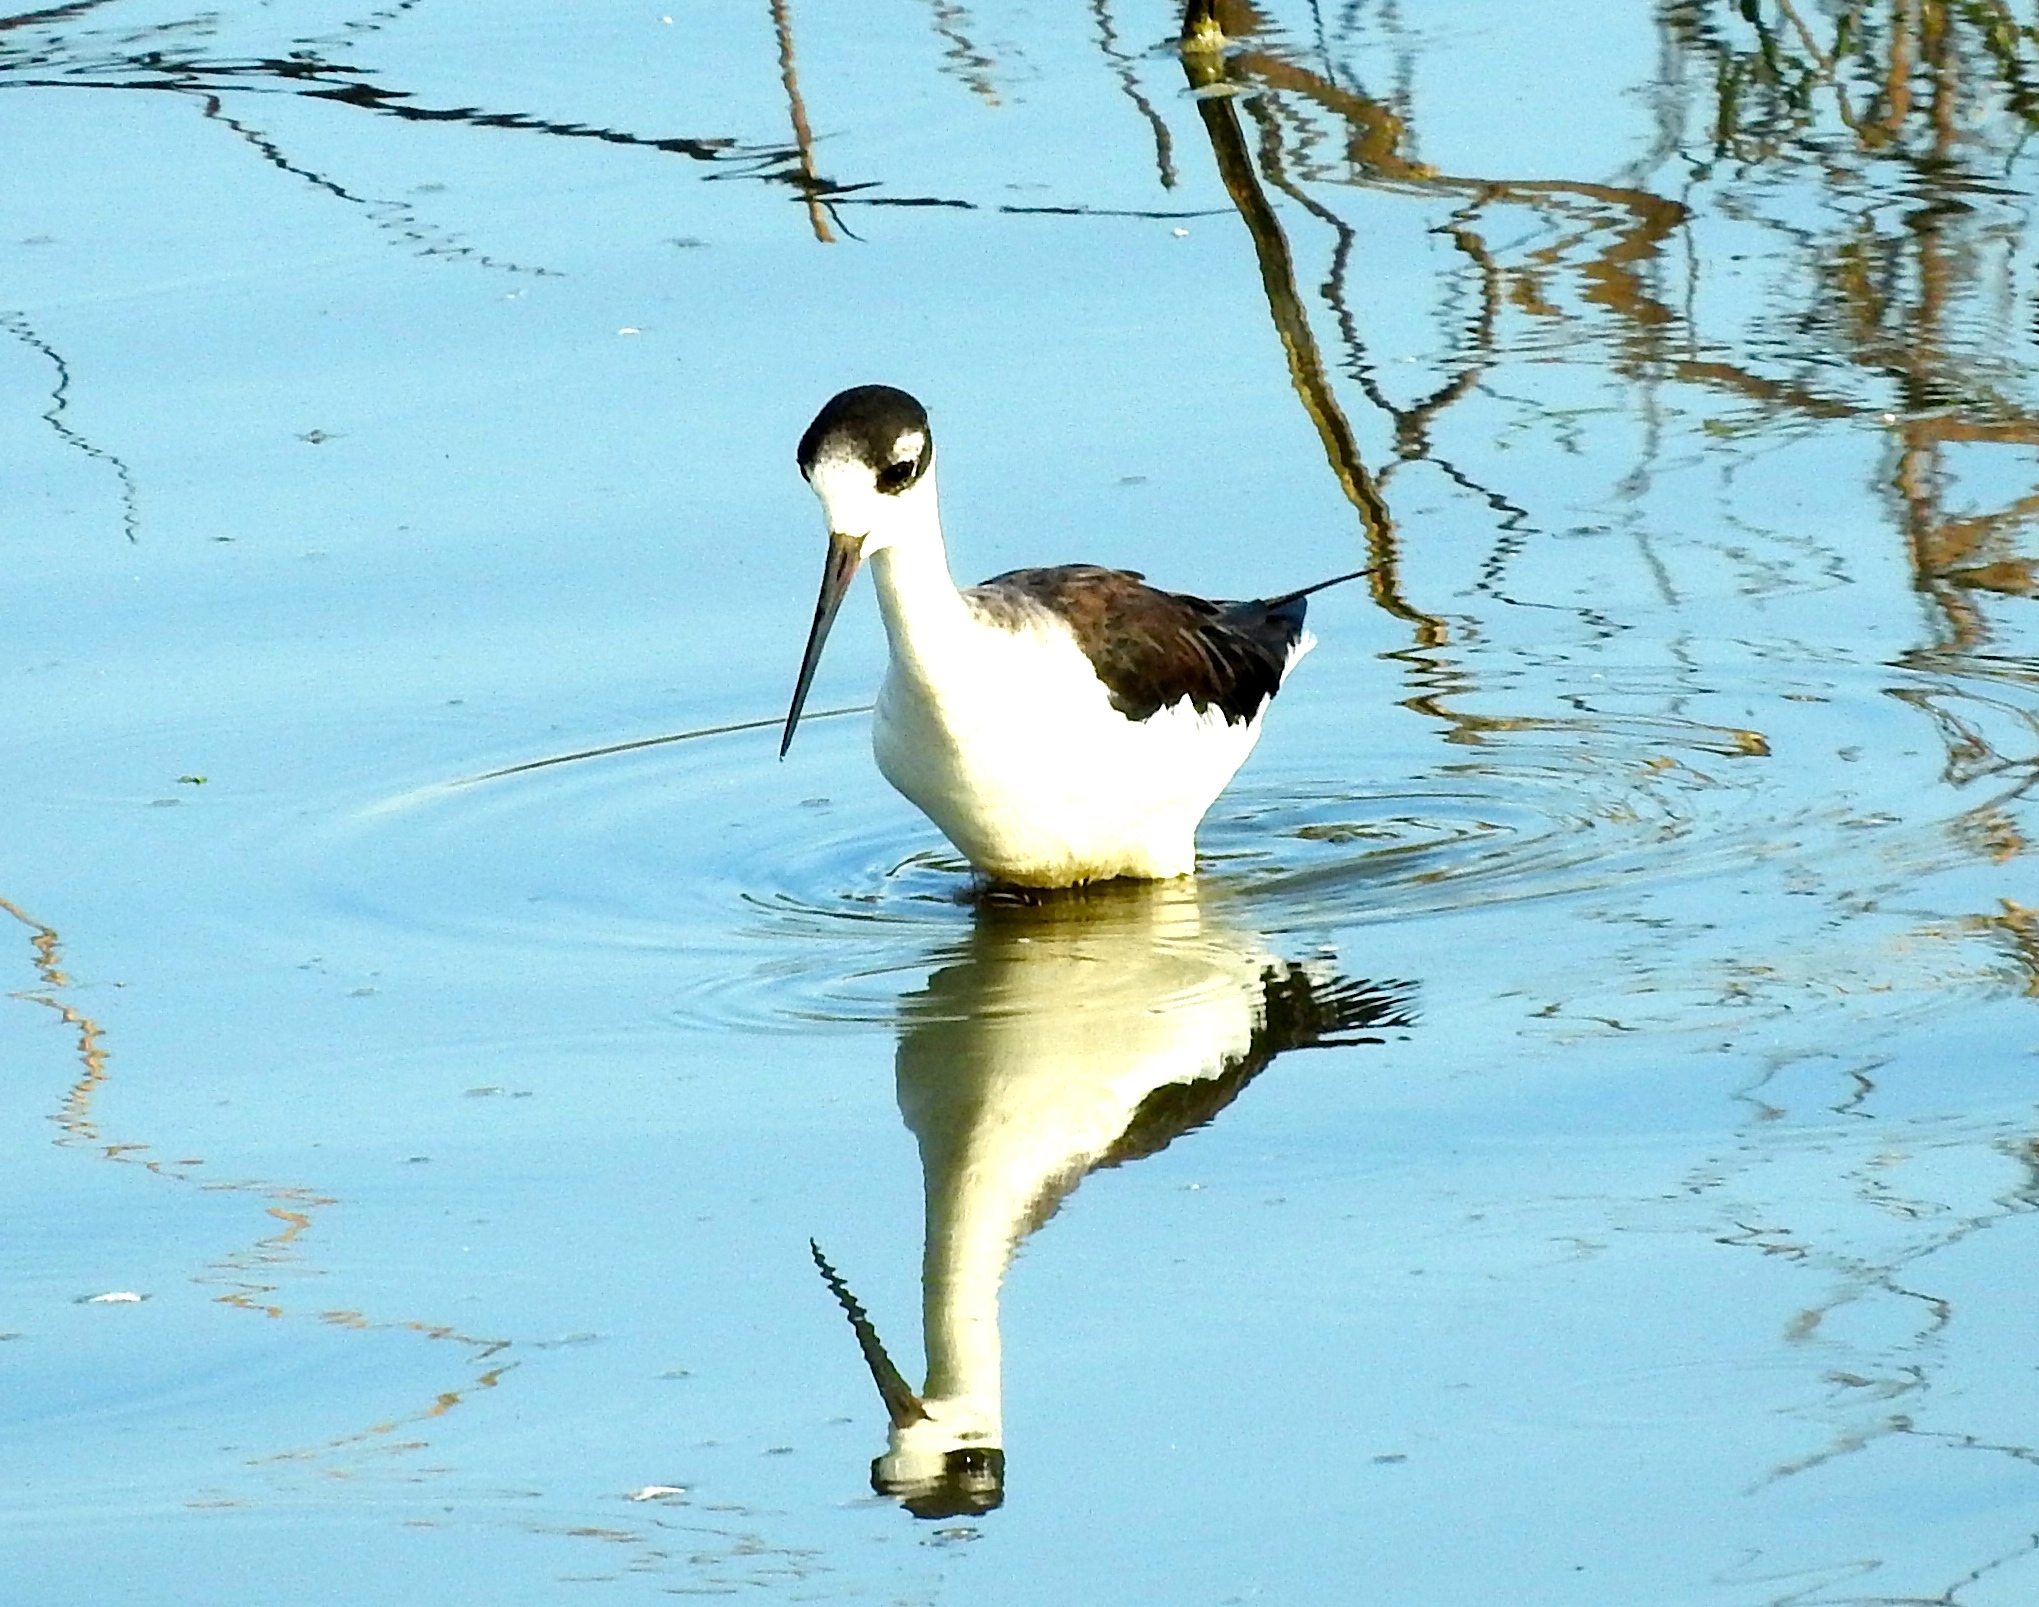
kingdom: Animalia
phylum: Chordata
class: Aves
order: Charadriiformes
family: Recurvirostridae
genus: Himantopus
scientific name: Himantopus mexicanus
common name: Black-necked stilt
